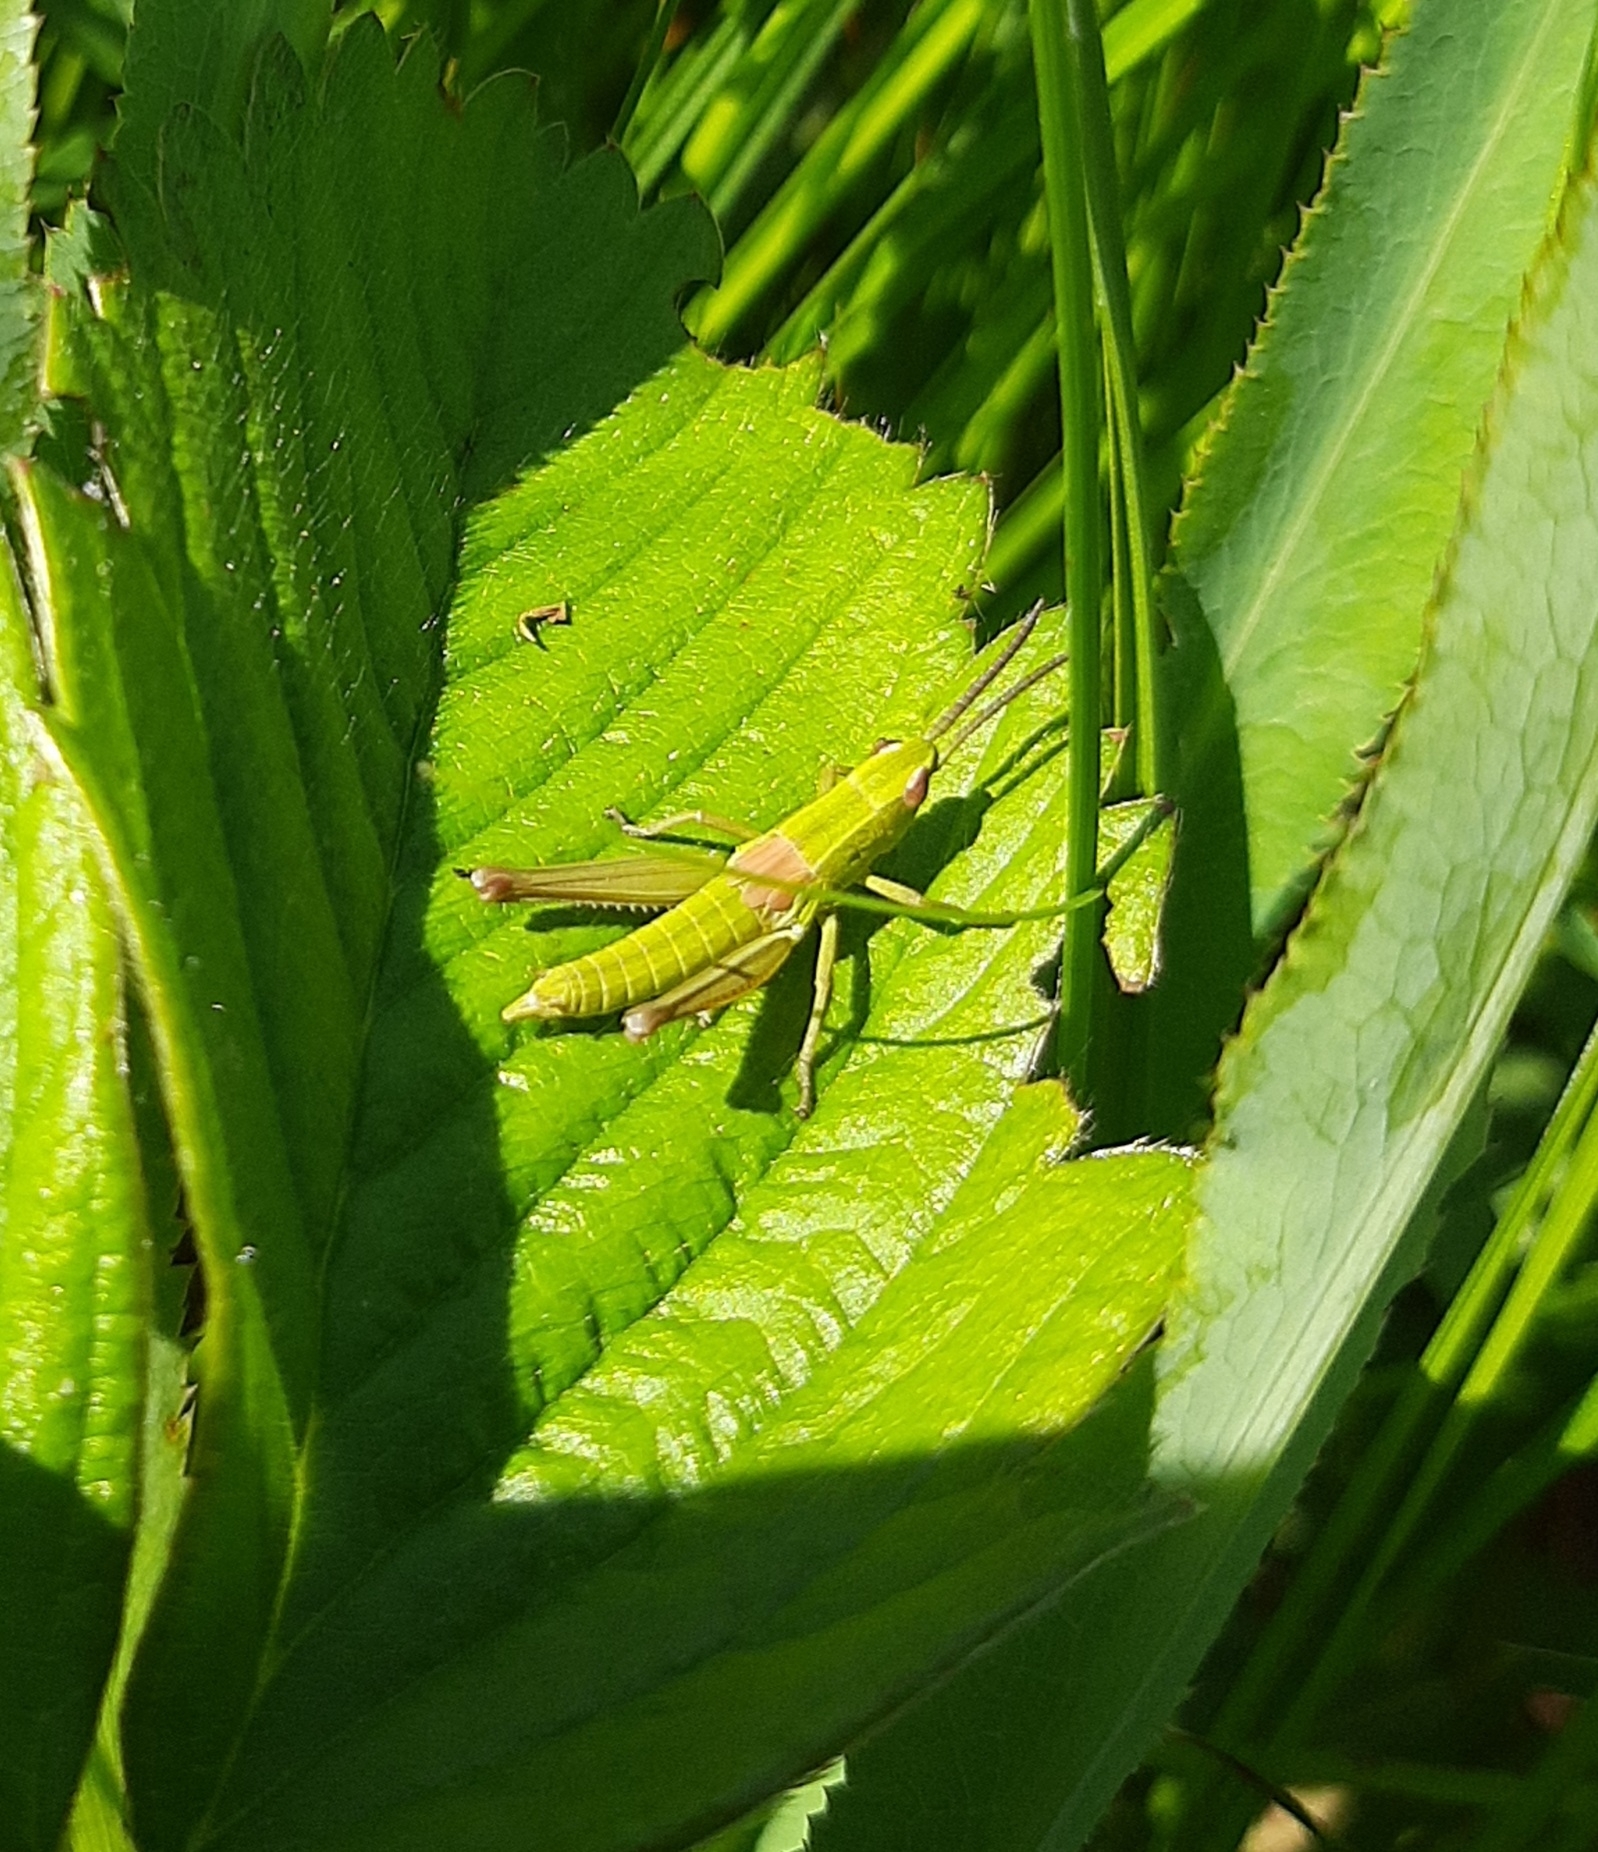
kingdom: Animalia
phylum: Arthropoda
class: Insecta
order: Orthoptera
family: Acrididae
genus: Euthystira
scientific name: Euthystira brachyptera
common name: Small gold grasshopper
